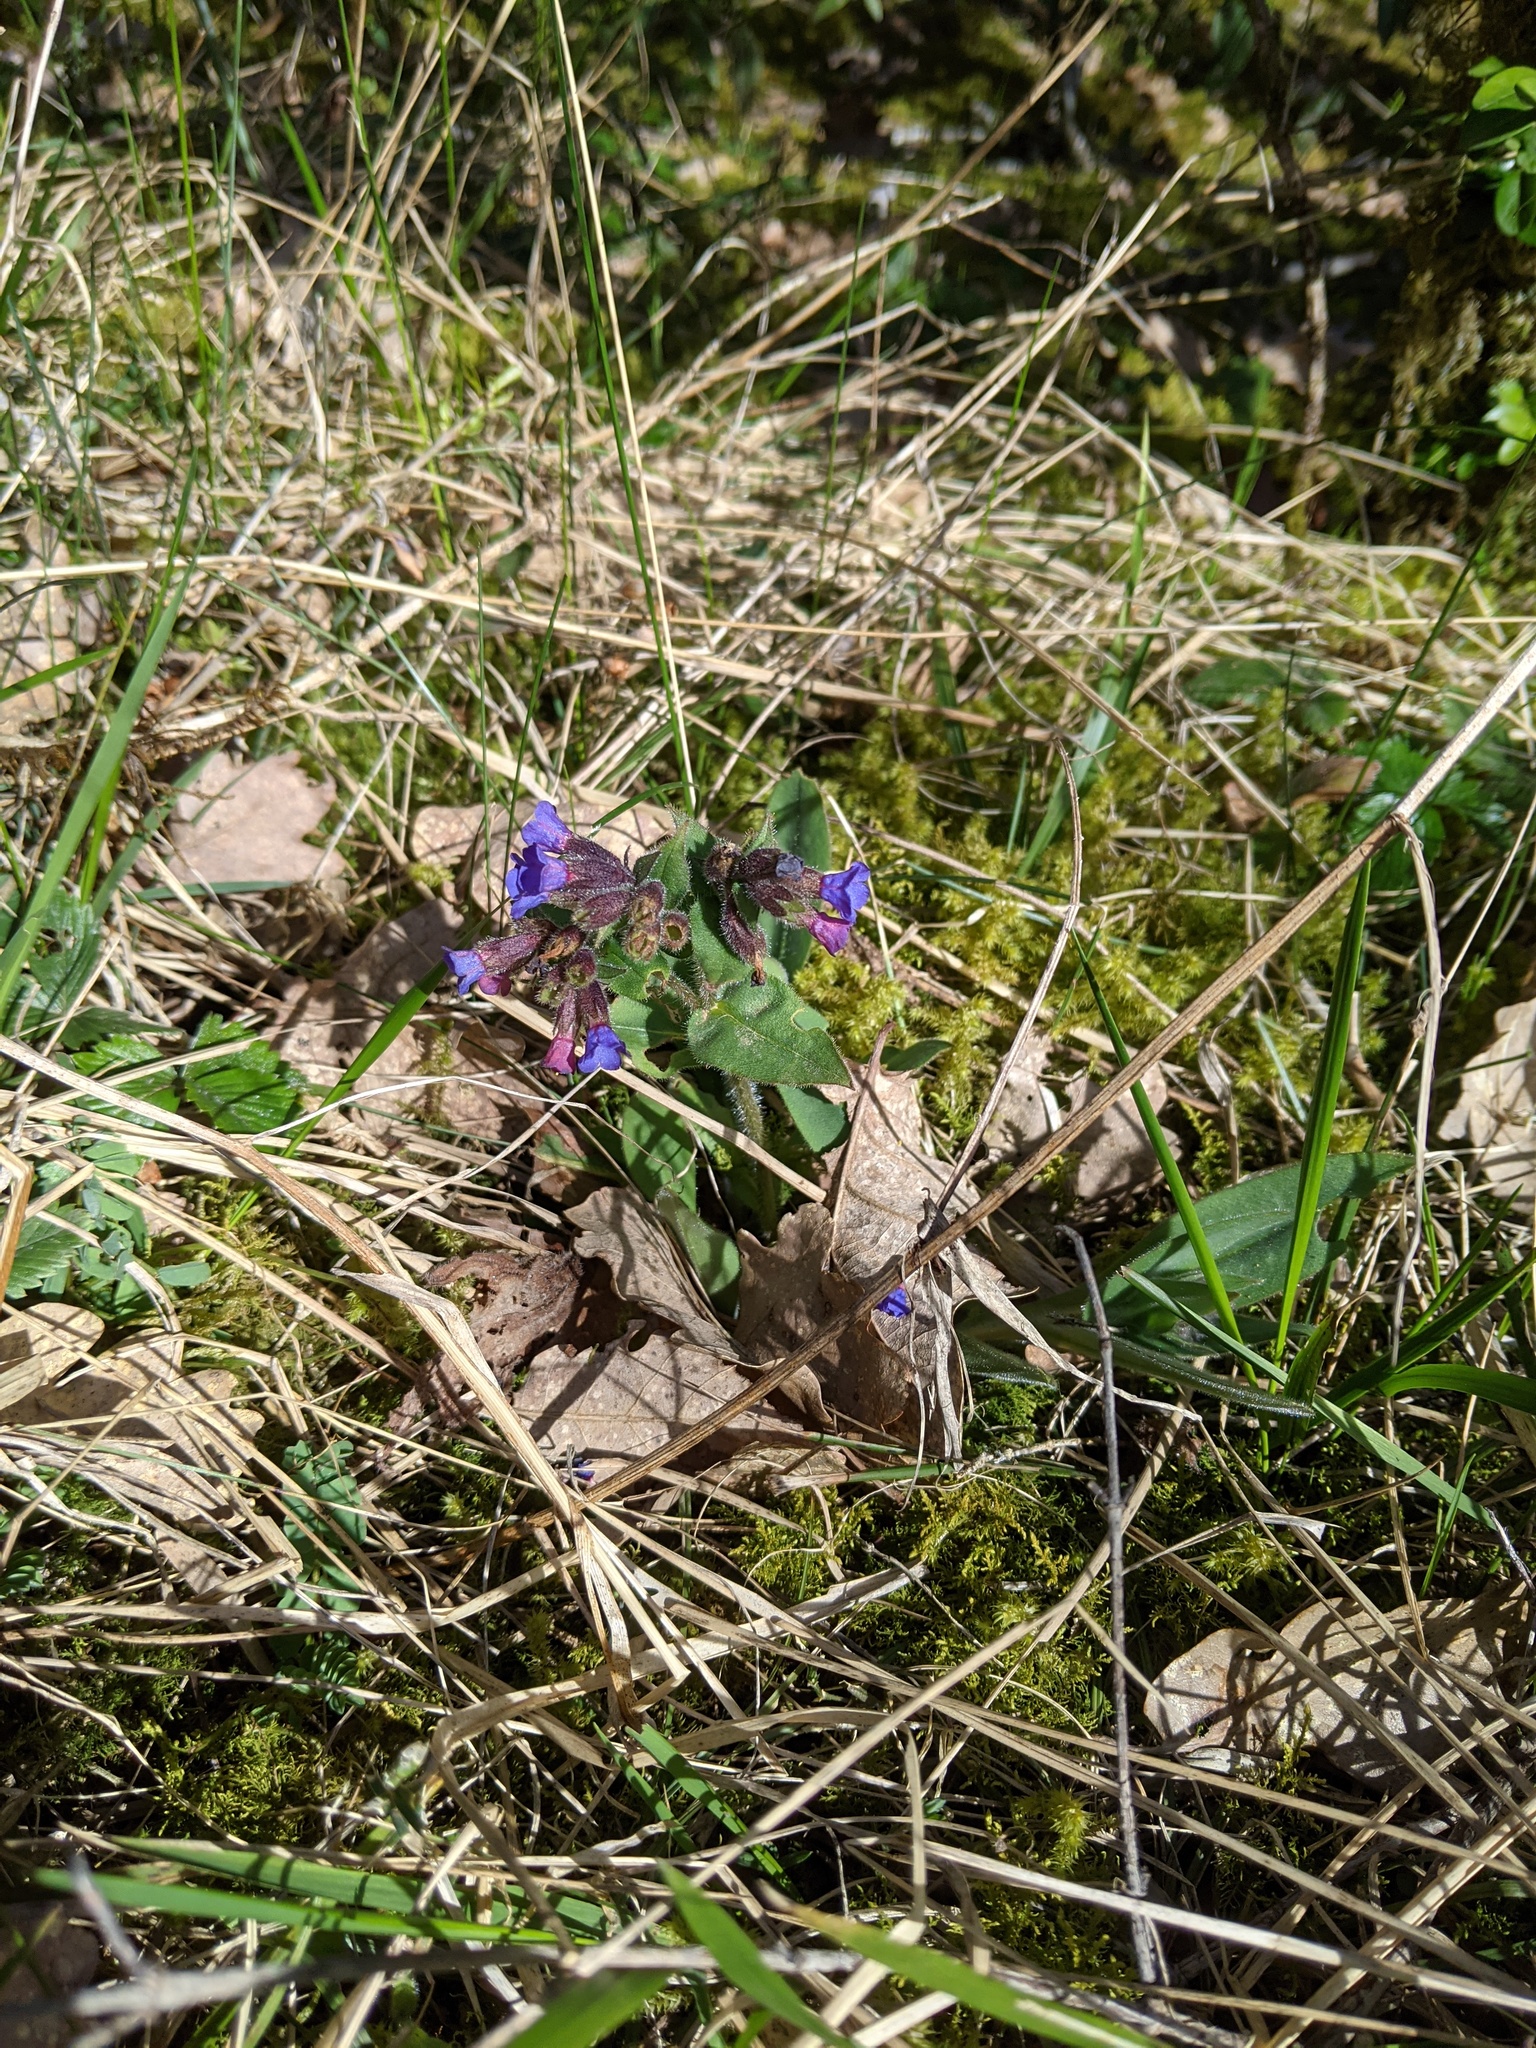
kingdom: Plantae
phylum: Tracheophyta
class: Magnoliopsida
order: Boraginales
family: Boraginaceae
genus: Pulmonaria
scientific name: Pulmonaria montana
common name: Mountain lungwort
